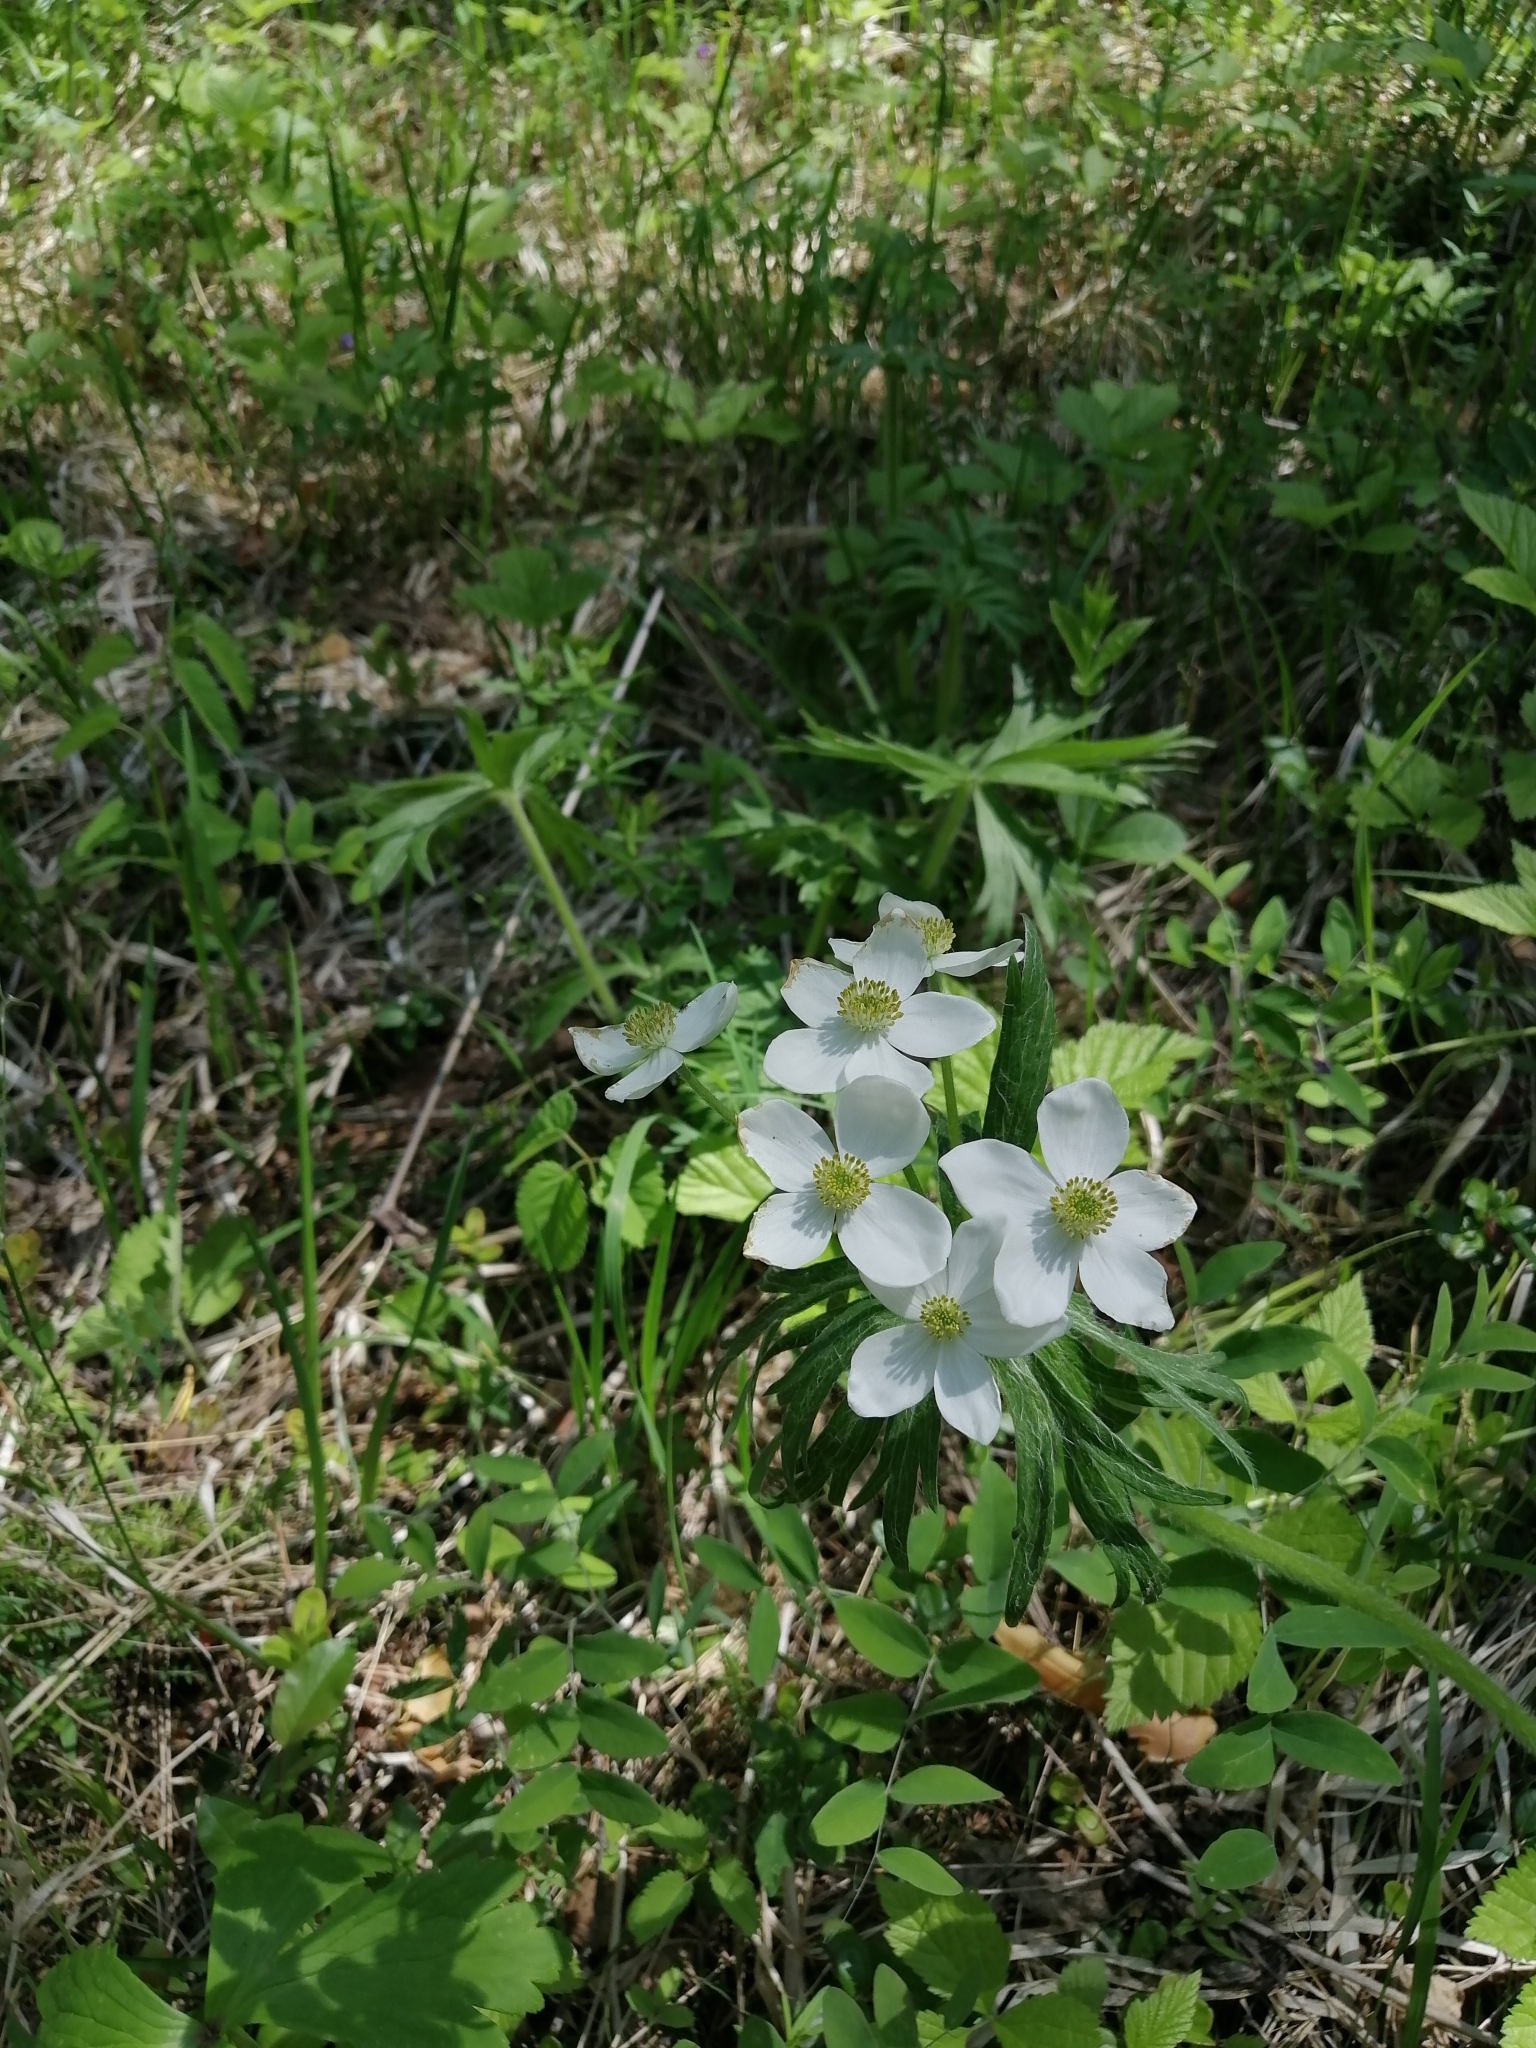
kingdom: Plantae
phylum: Tracheophyta
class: Magnoliopsida
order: Ranunculales
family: Ranunculaceae
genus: Anemonastrum
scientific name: Anemonastrum narcissiflorum
